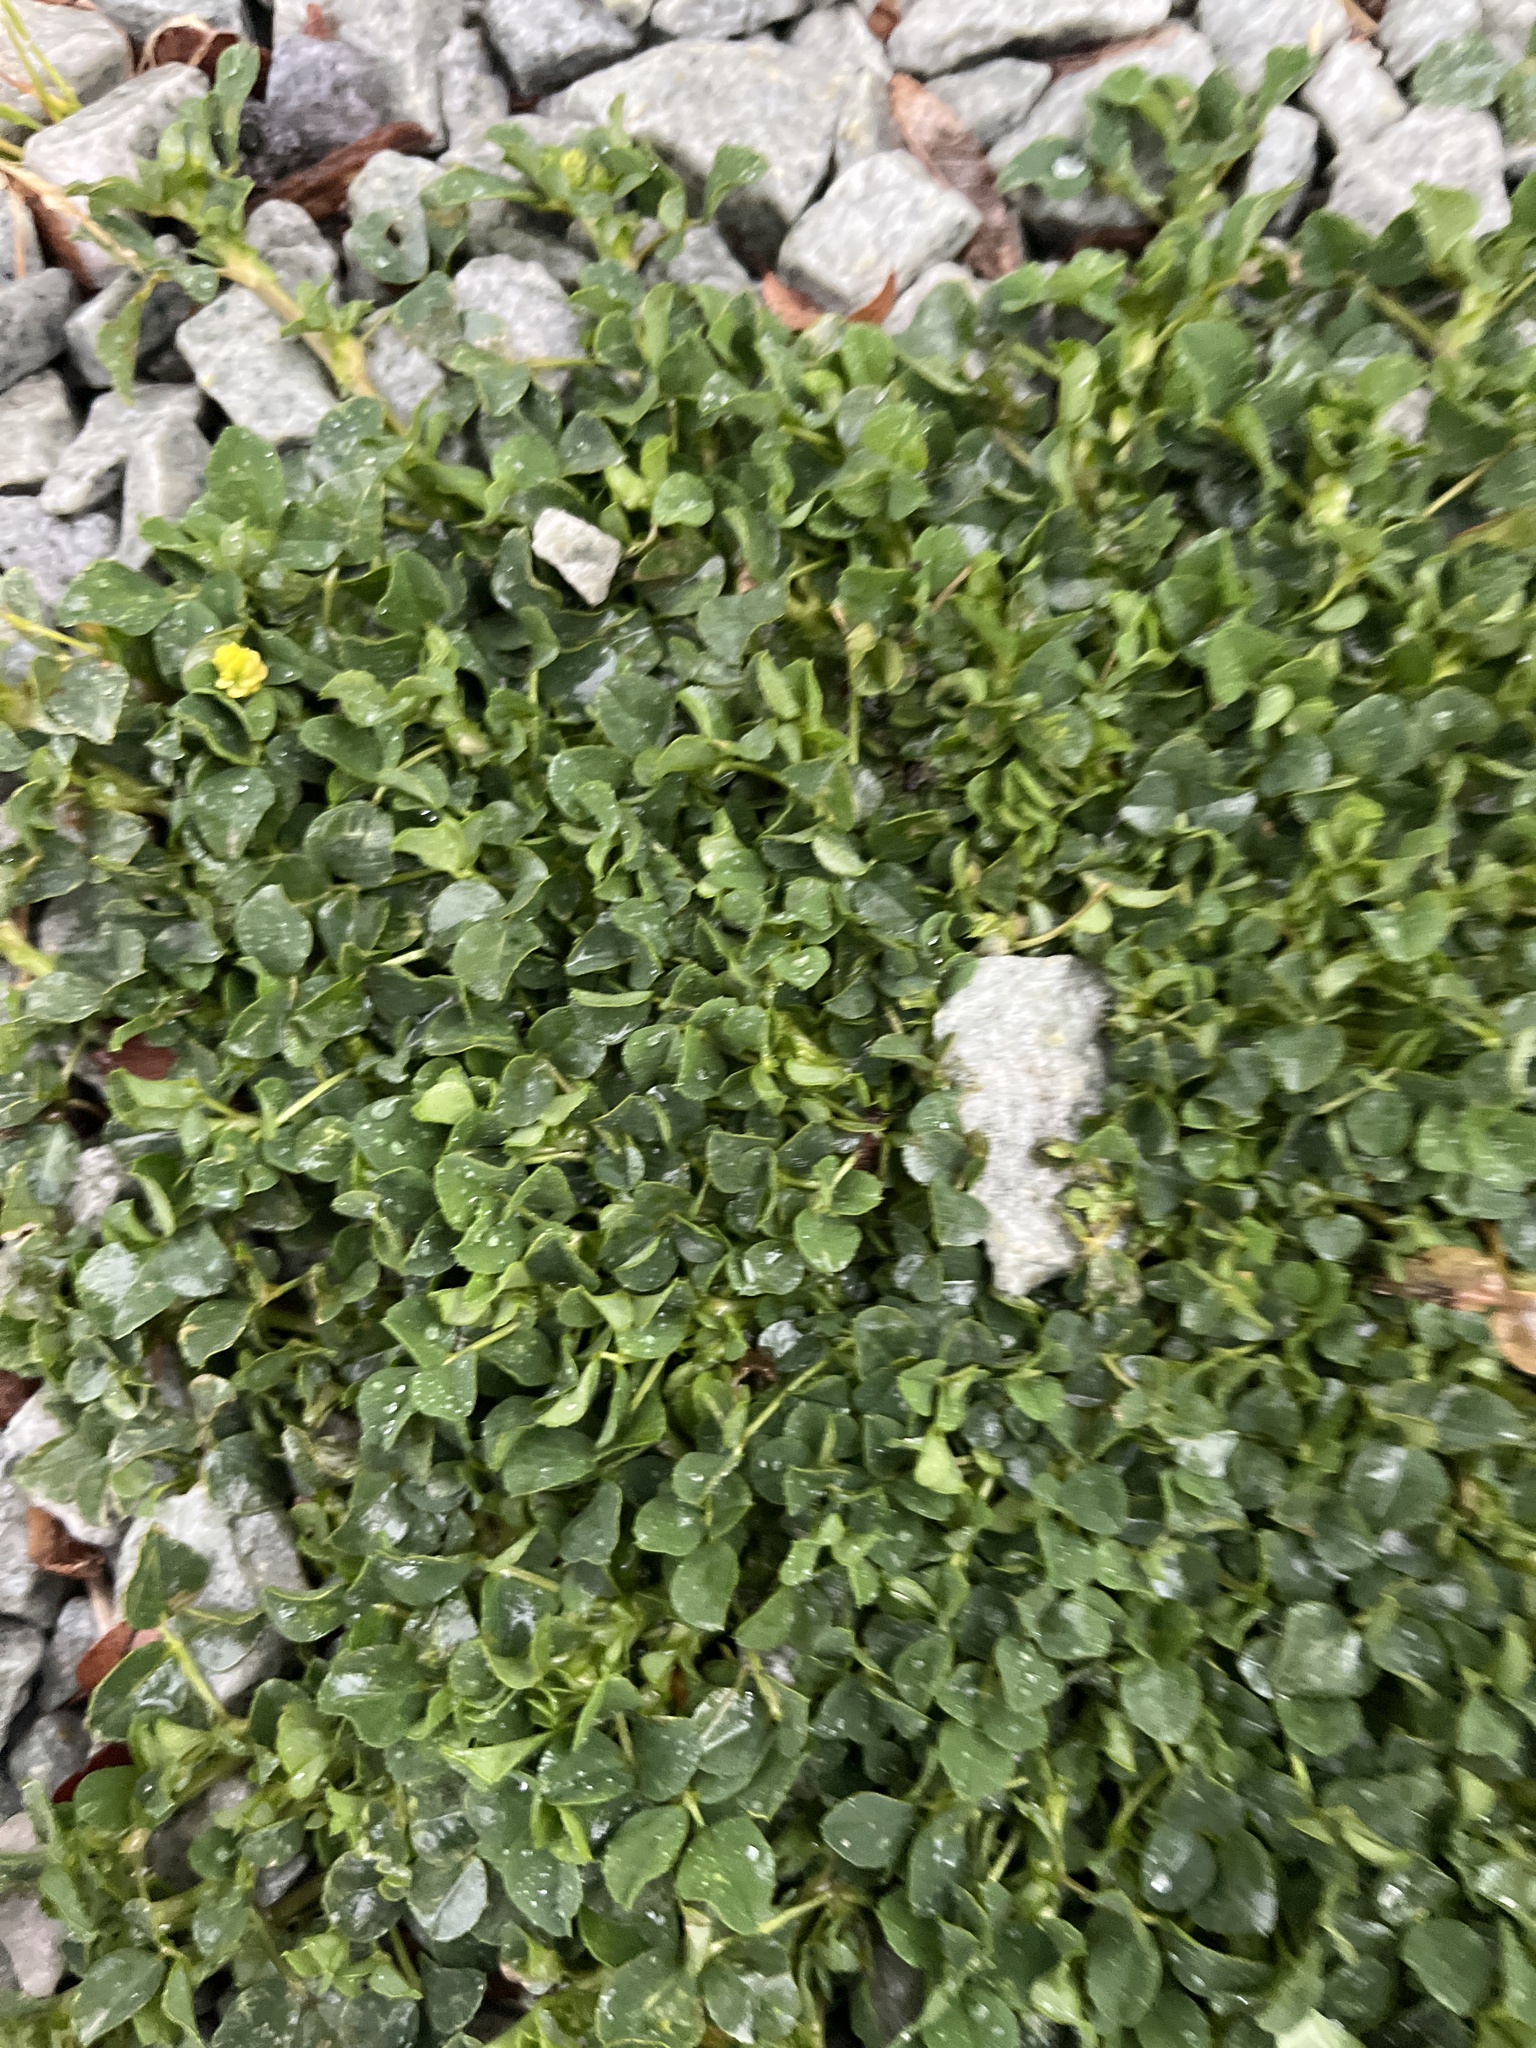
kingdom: Plantae
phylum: Tracheophyta
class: Magnoliopsida
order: Fabales
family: Fabaceae
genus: Medicago
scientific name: Medicago lupulina
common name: Black medick
